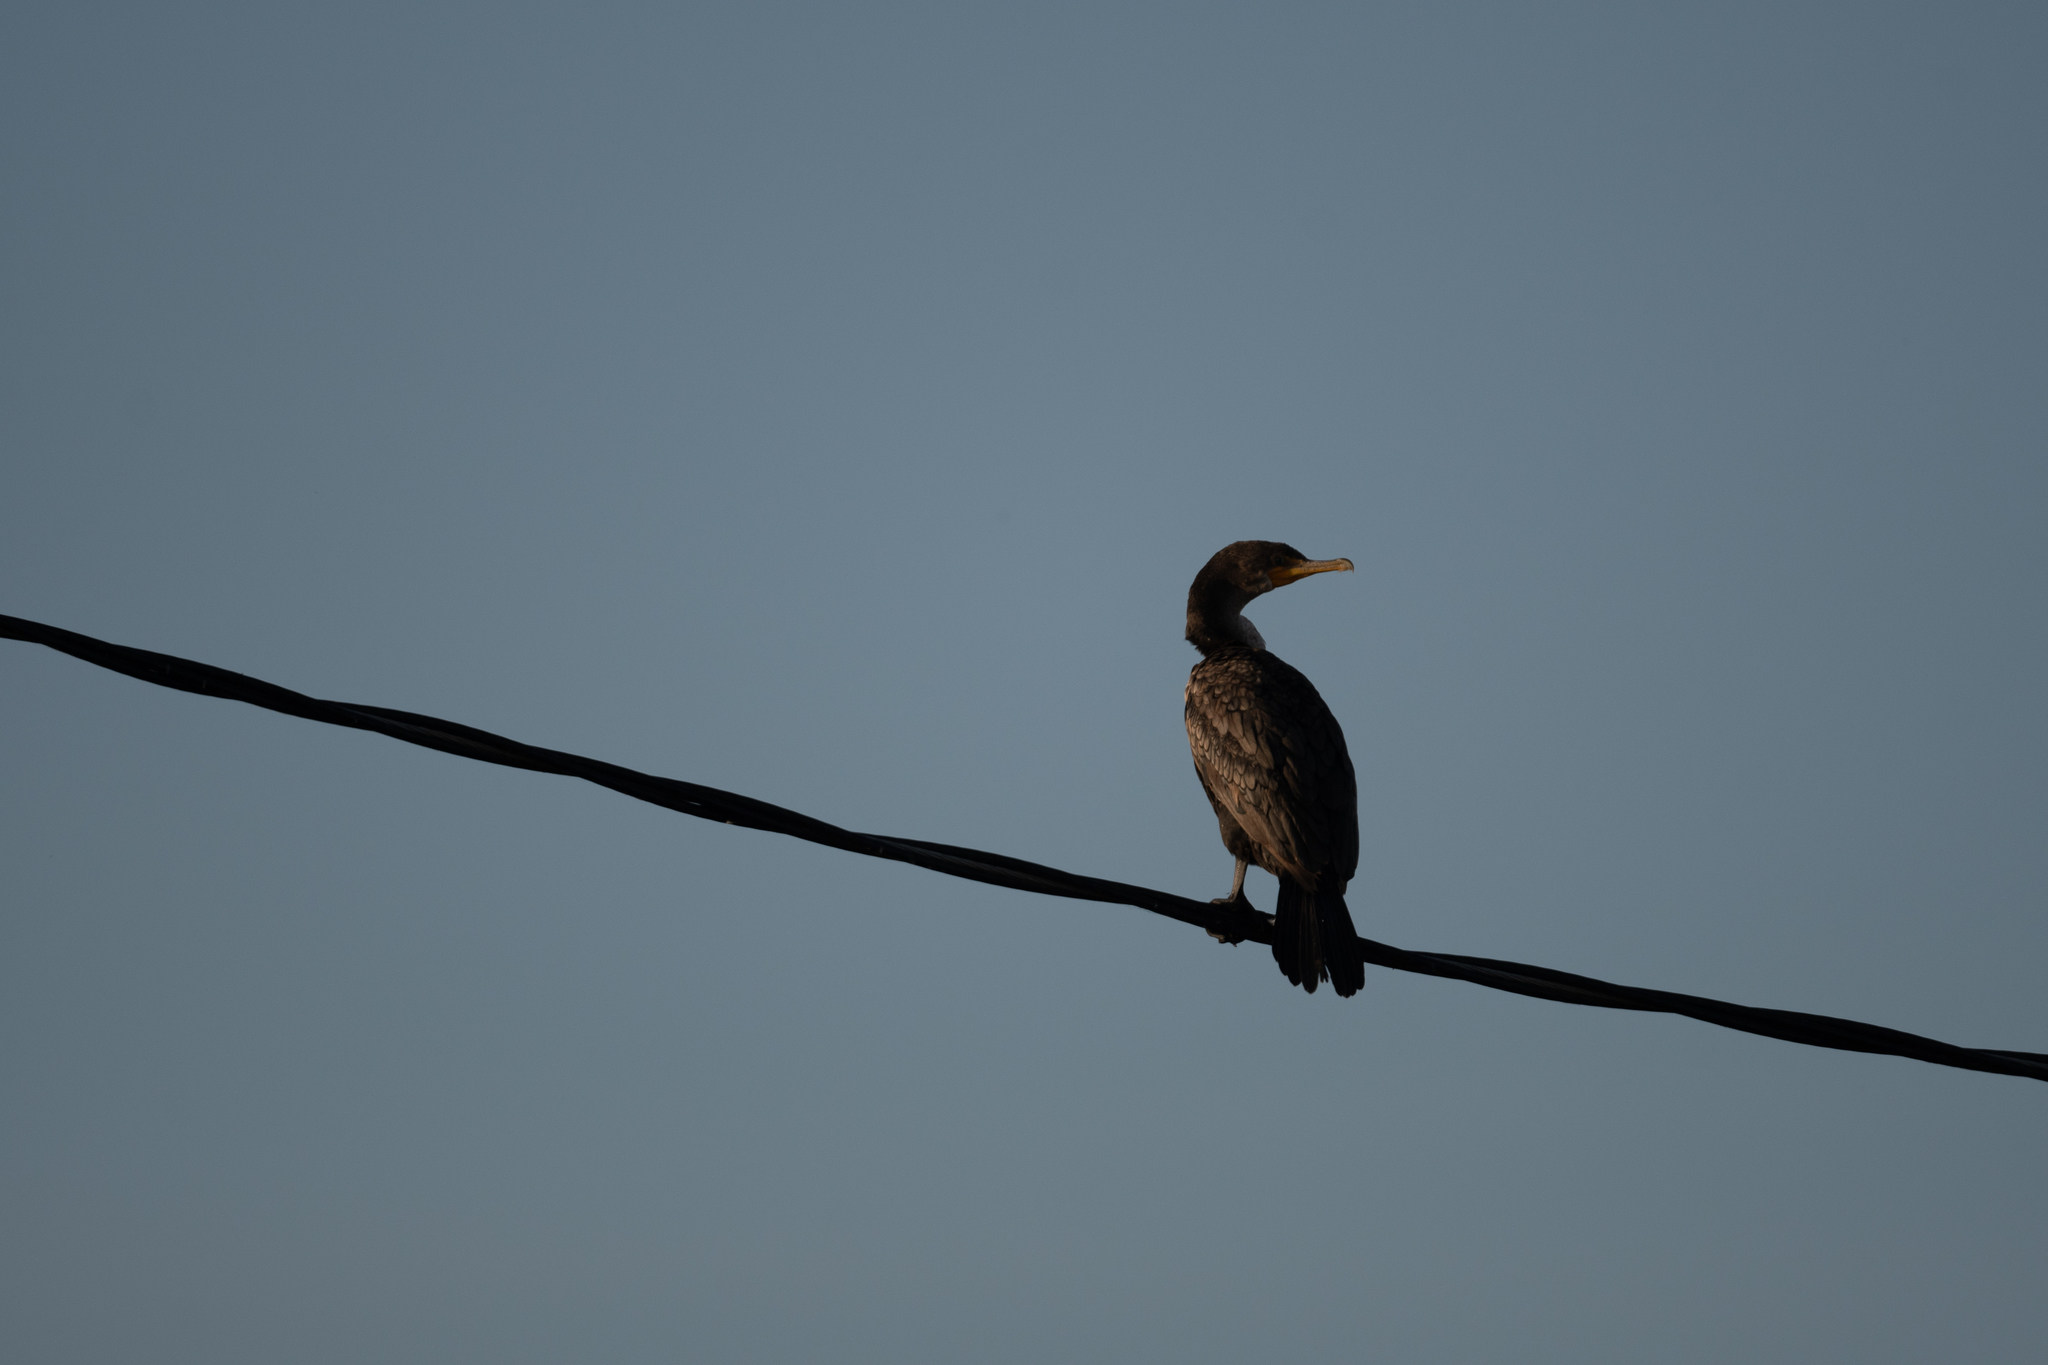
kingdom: Animalia
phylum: Chordata
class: Aves
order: Suliformes
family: Phalacrocoracidae
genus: Phalacrocorax
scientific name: Phalacrocorax auritus
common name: Double-crested cormorant
